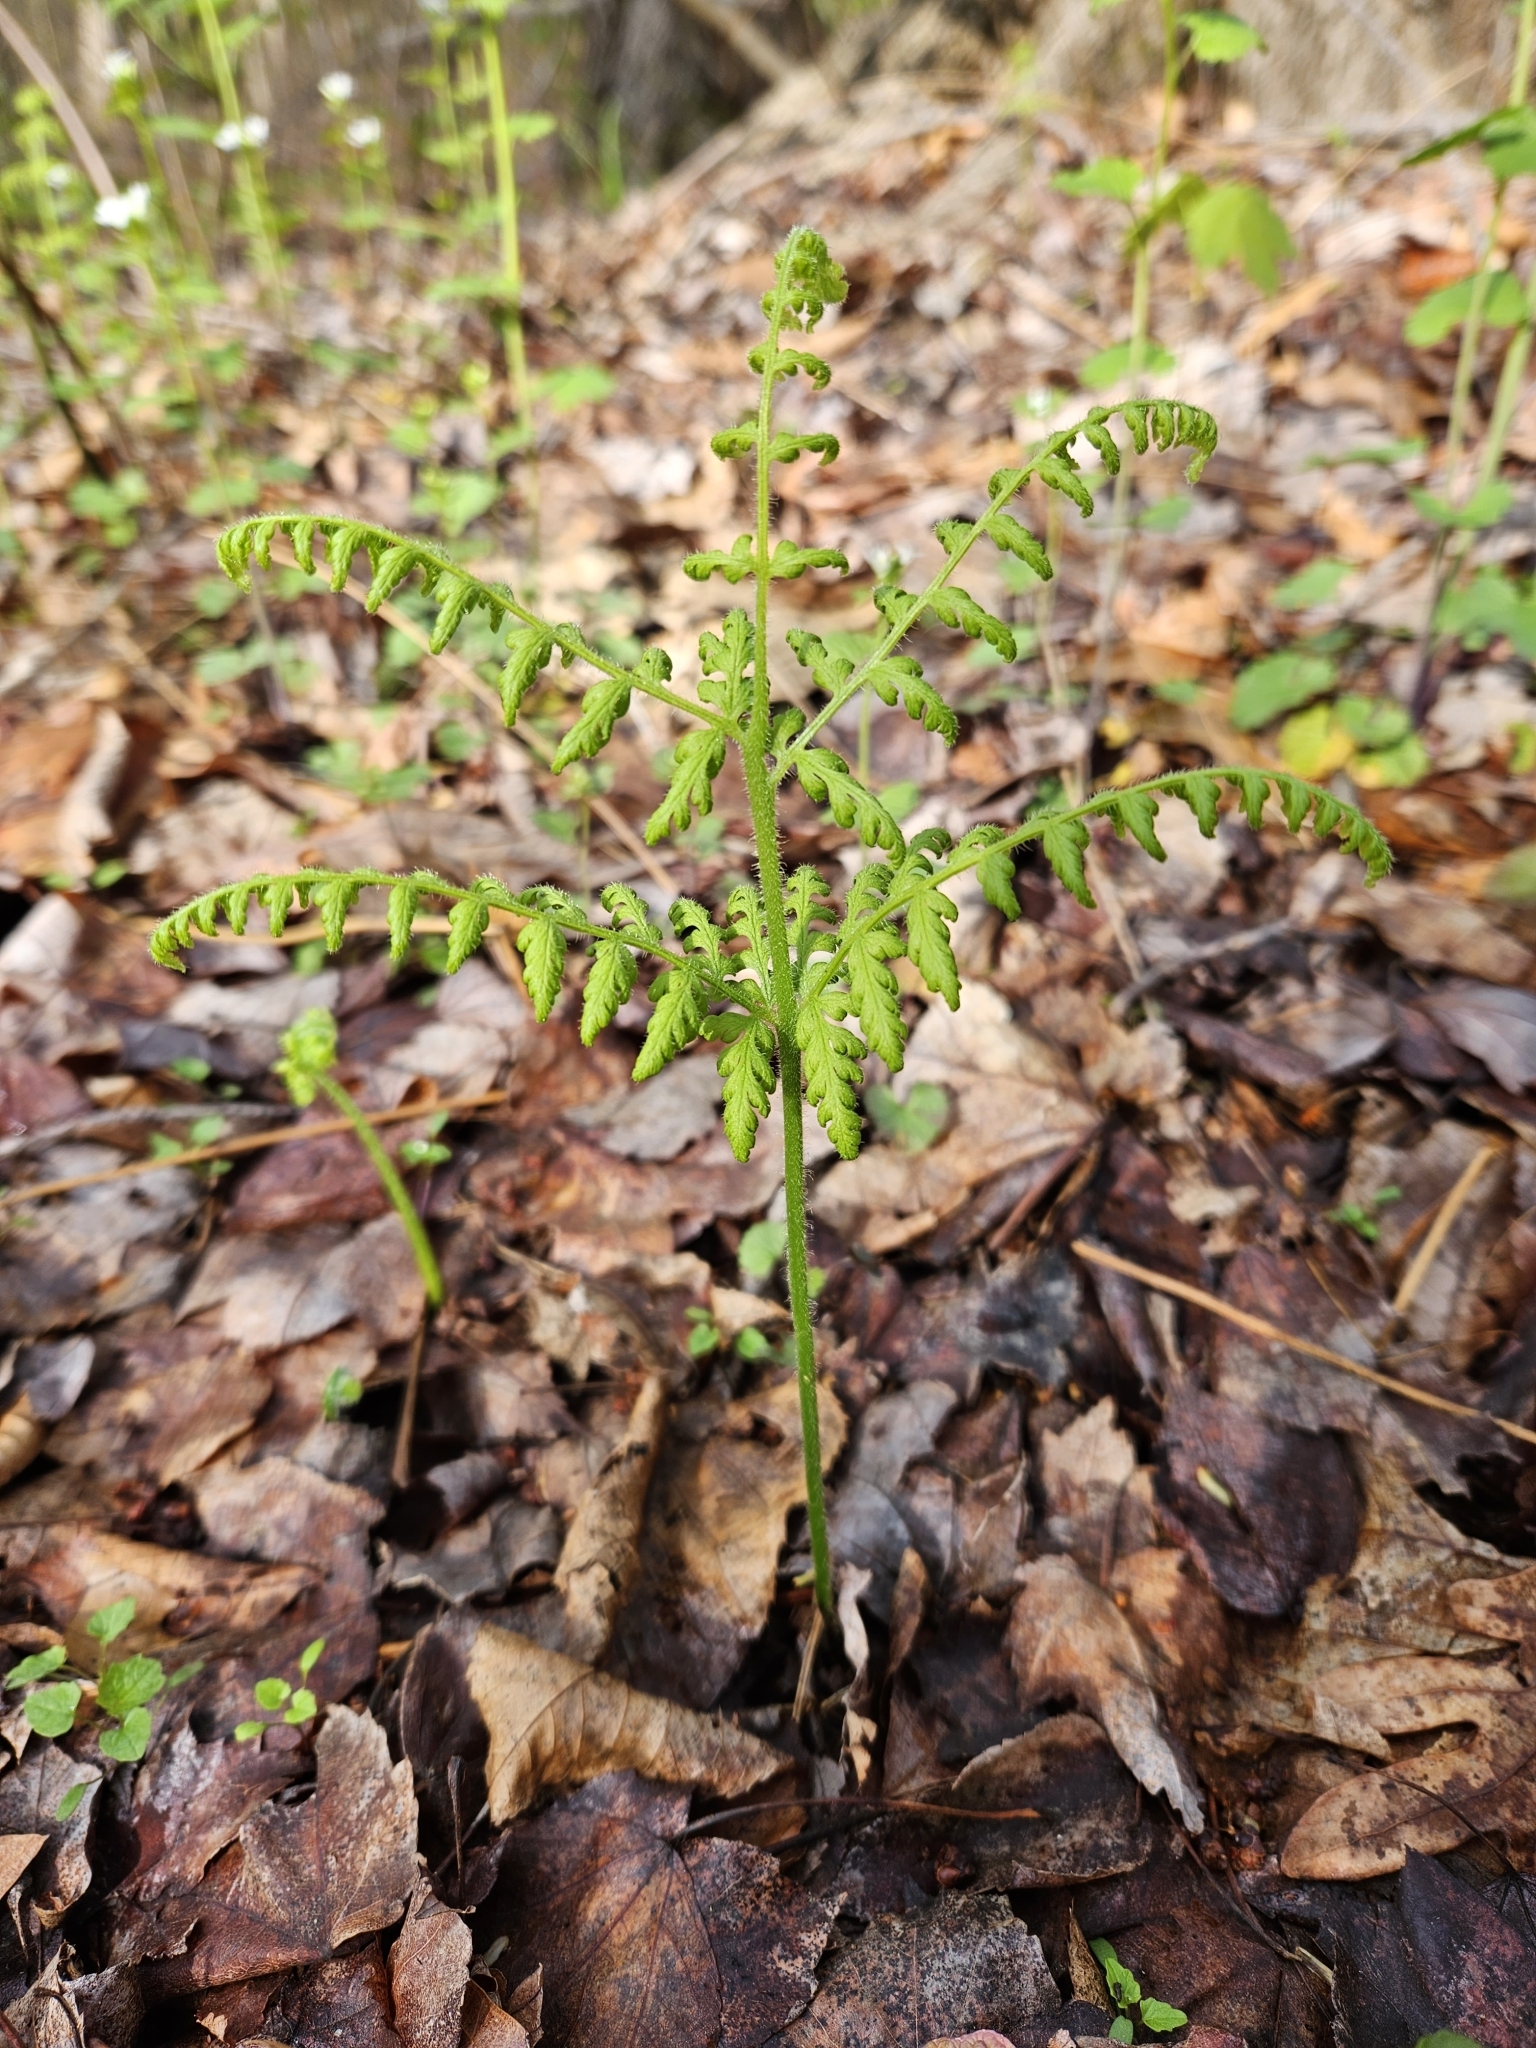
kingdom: Plantae
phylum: Tracheophyta
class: Polypodiopsida
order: Polypodiales
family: Dennstaedtiaceae
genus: Sitobolium
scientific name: Sitobolium punctilobum
